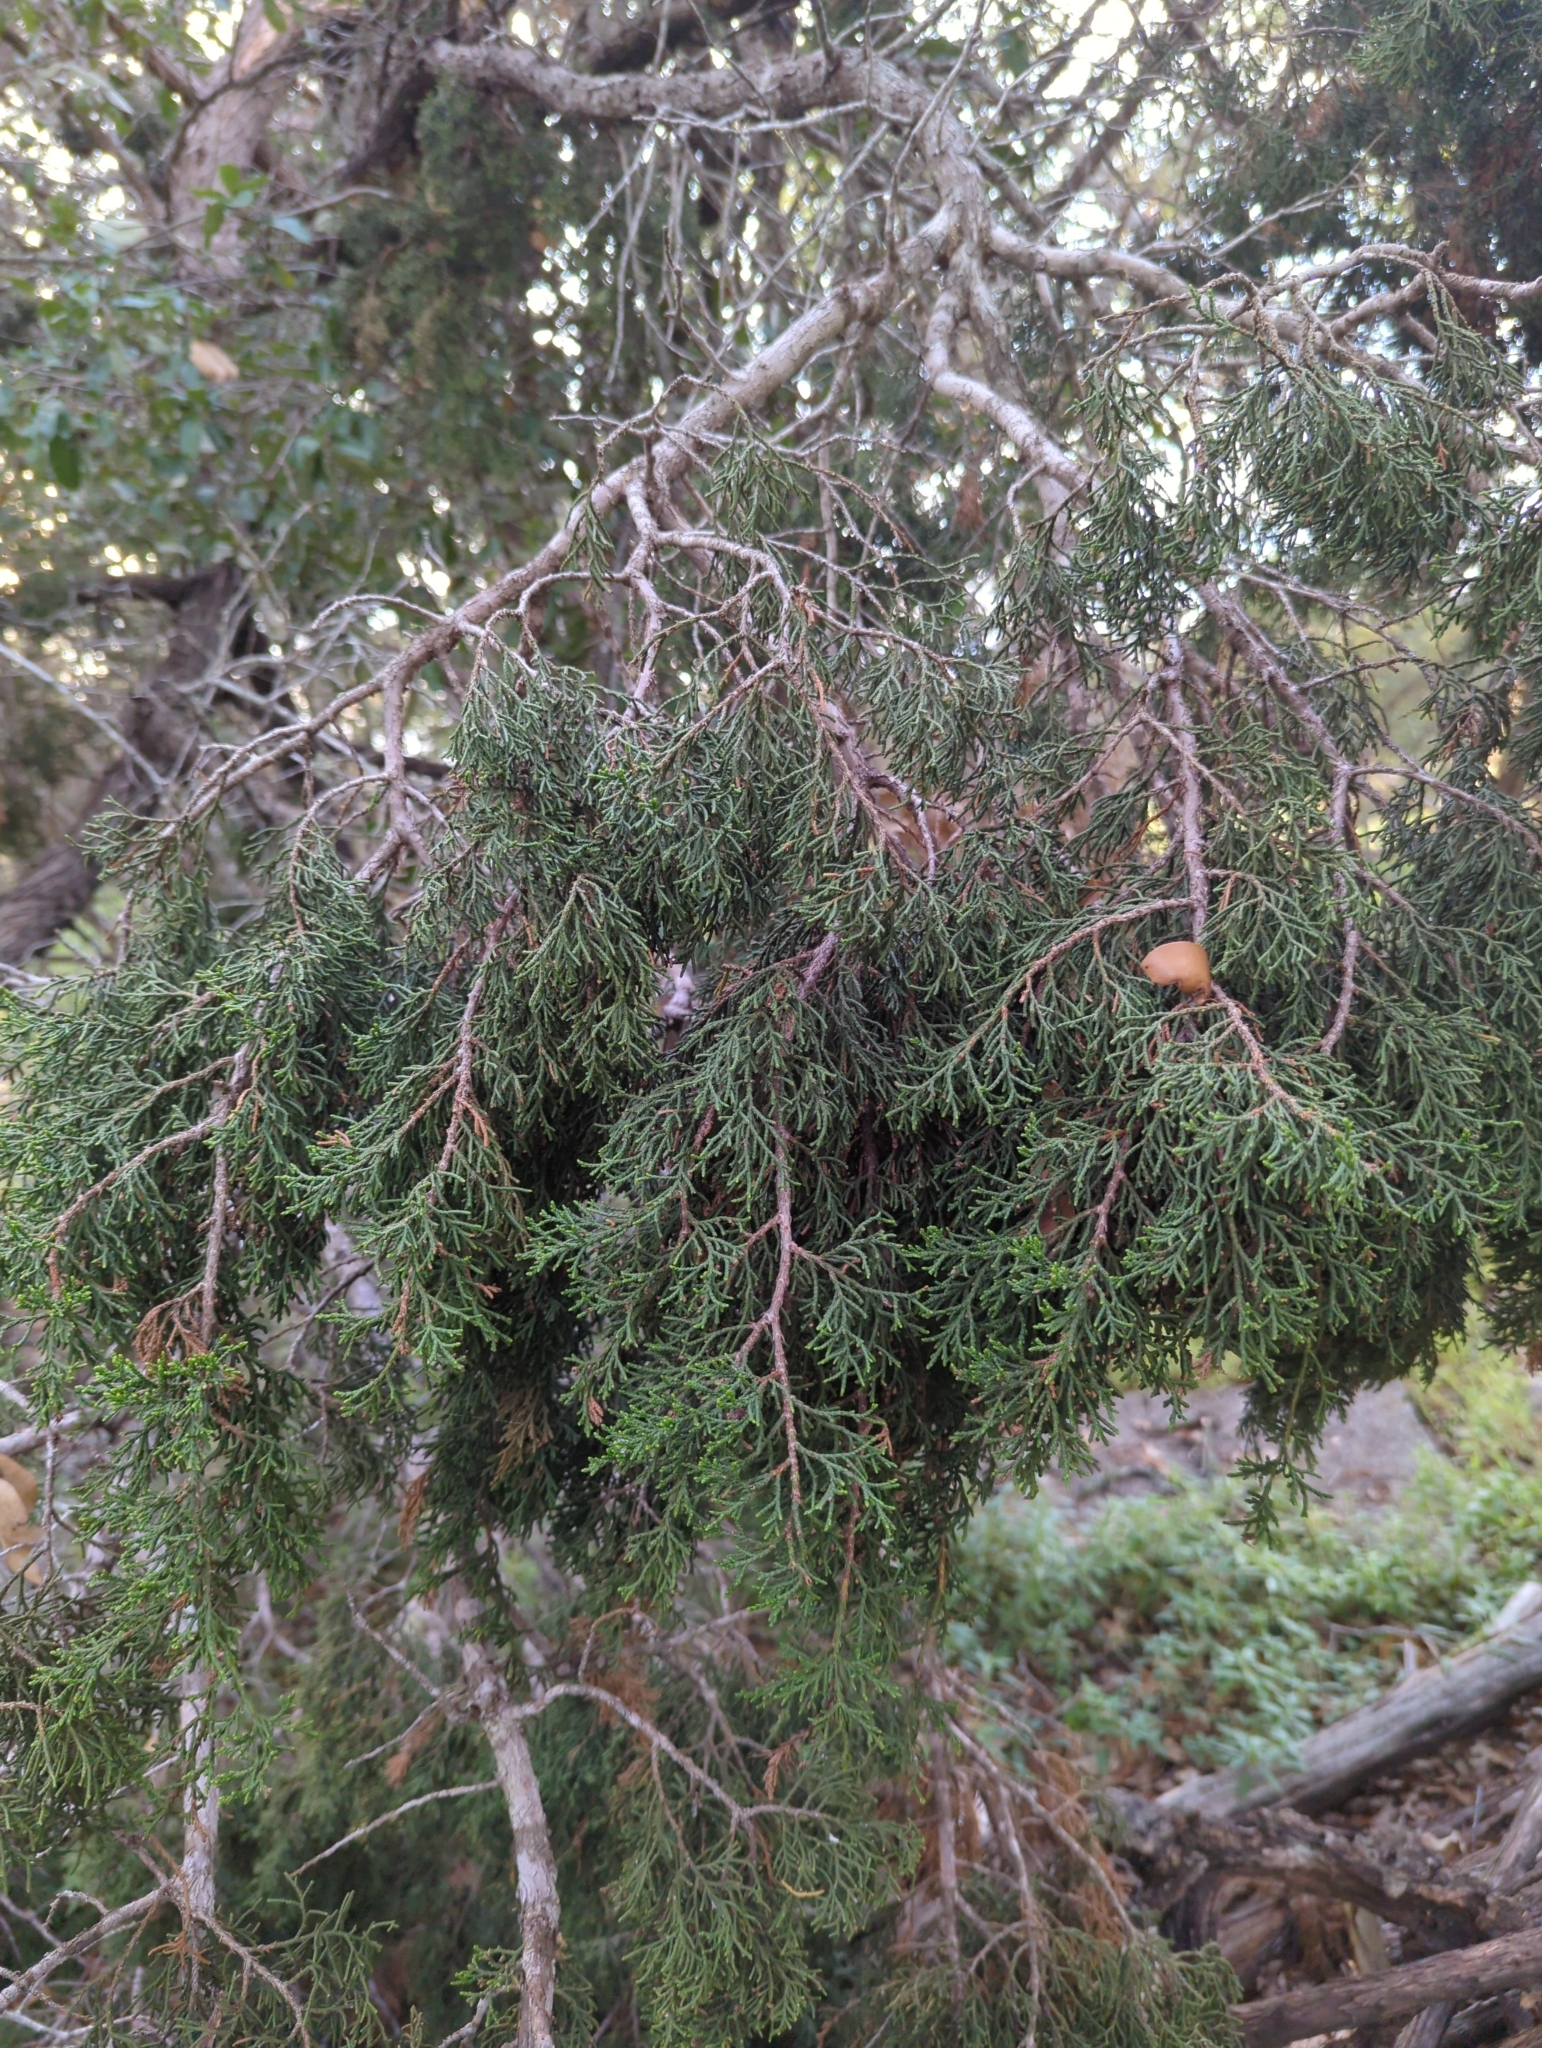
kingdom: Plantae
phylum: Tracheophyta
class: Pinopsida
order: Pinales
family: Cupressaceae
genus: Juniperus
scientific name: Juniperus ashei
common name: Mexican juniper
